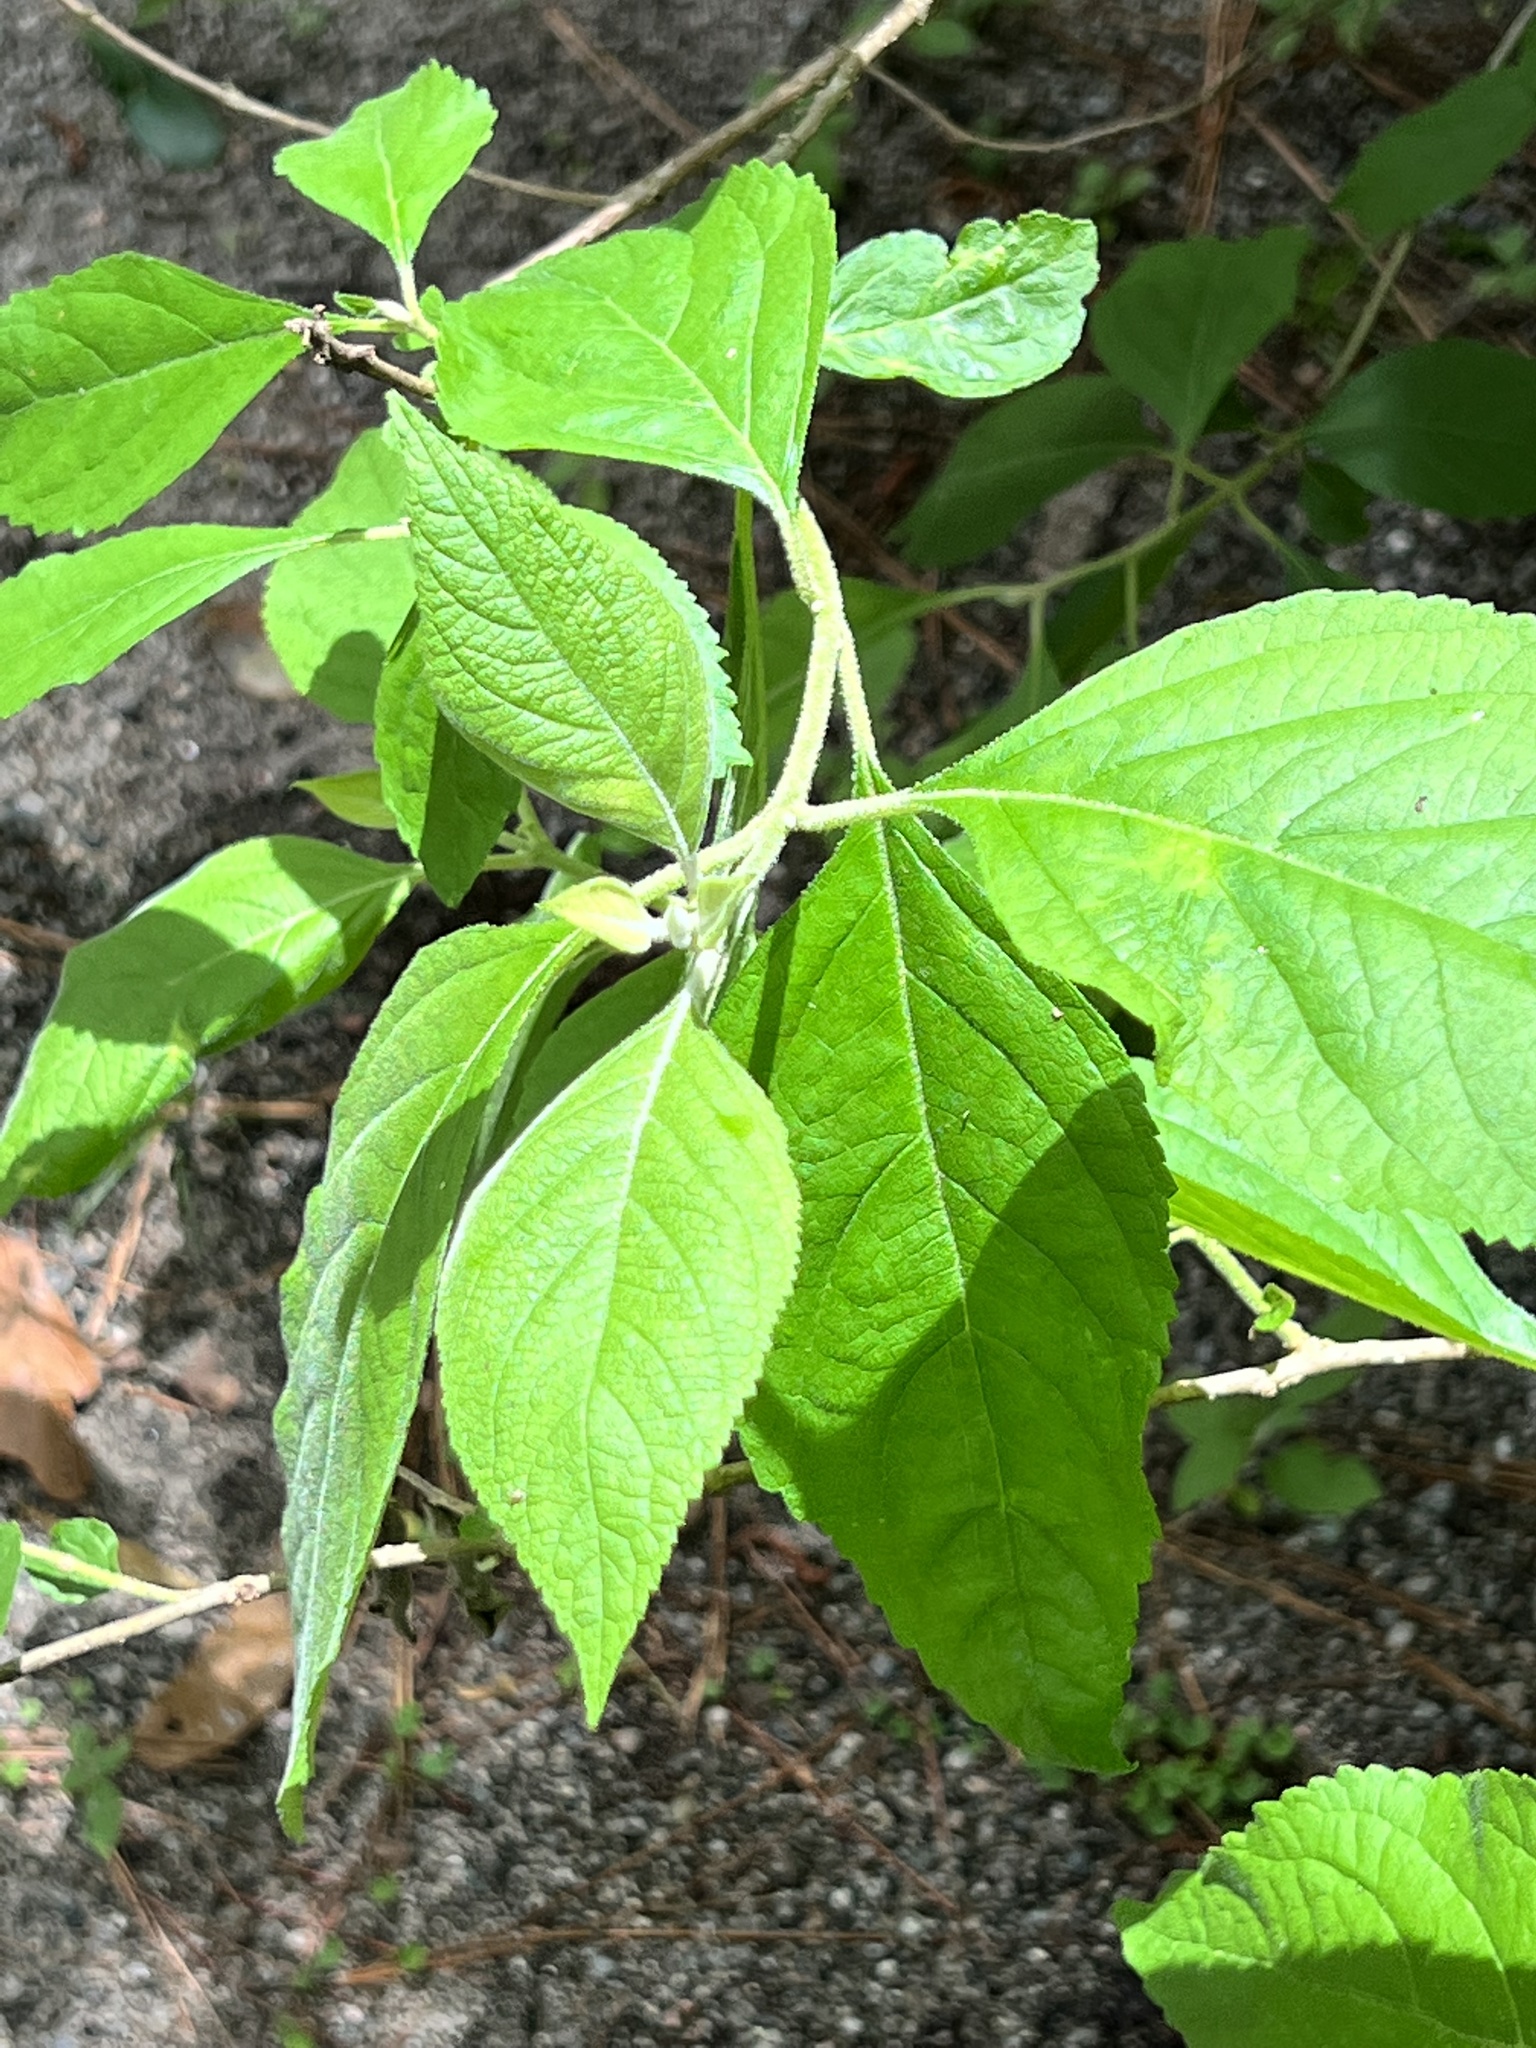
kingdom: Plantae
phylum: Tracheophyta
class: Magnoliopsida
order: Lamiales
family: Lamiaceae
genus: Callicarpa
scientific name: Callicarpa americana
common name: American beautyberry
